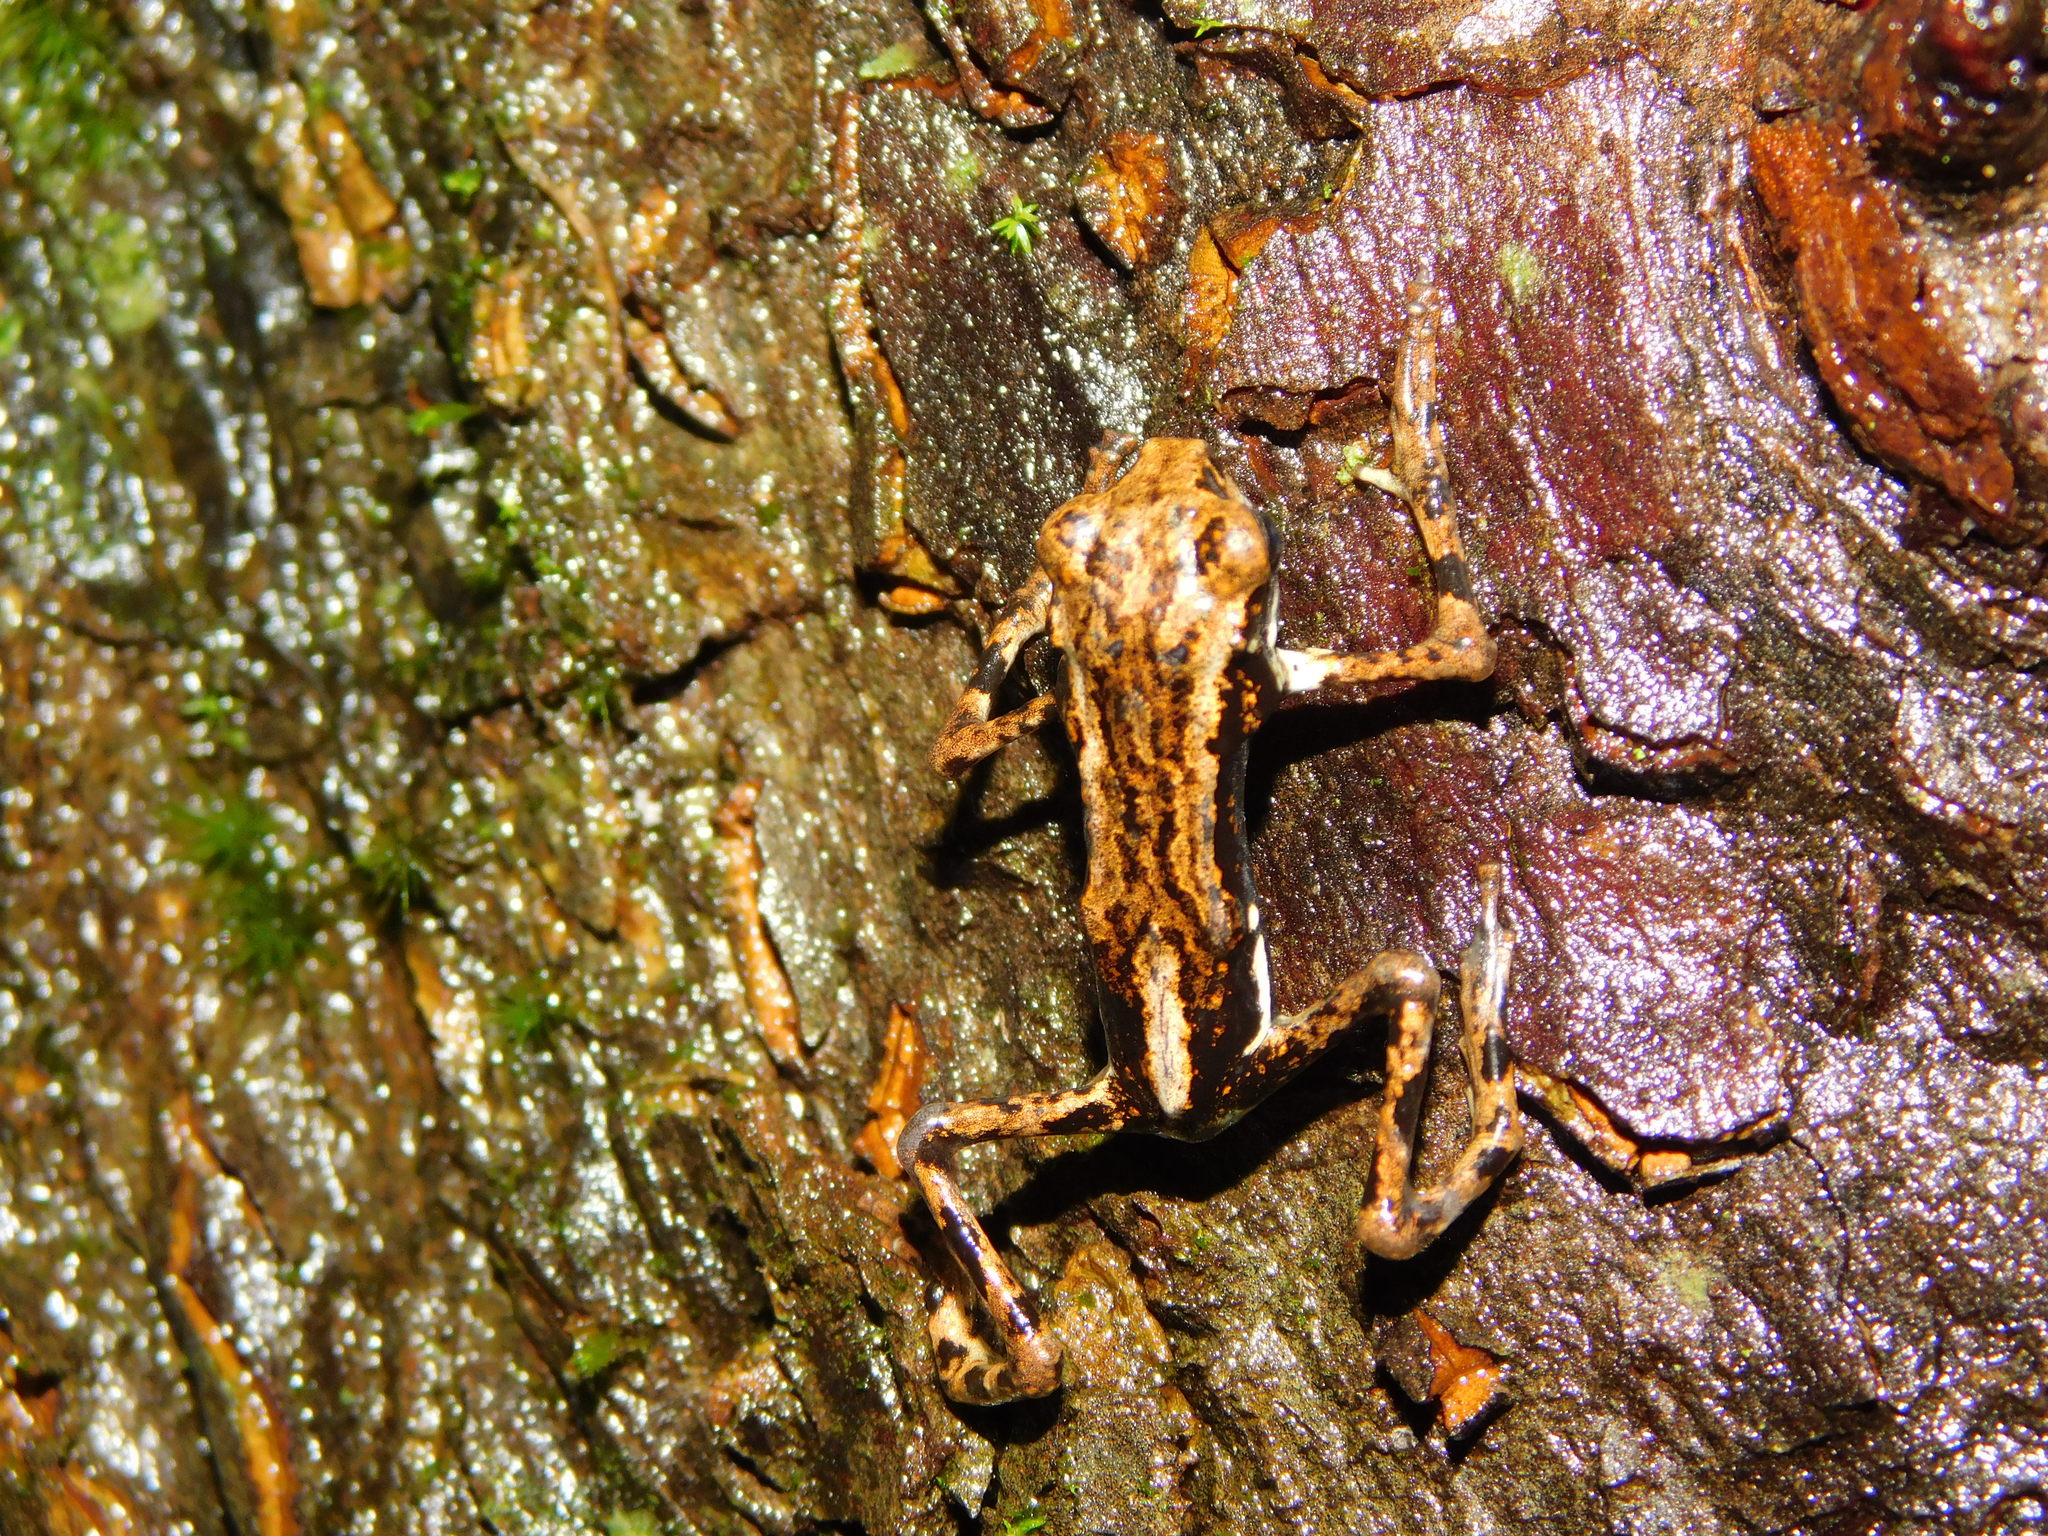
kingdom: Animalia
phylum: Chordata
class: Amphibia
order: Anura
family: Bufonidae
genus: Pedostibes
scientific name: Pedostibes tuberculosus
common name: Malabar tree toad
